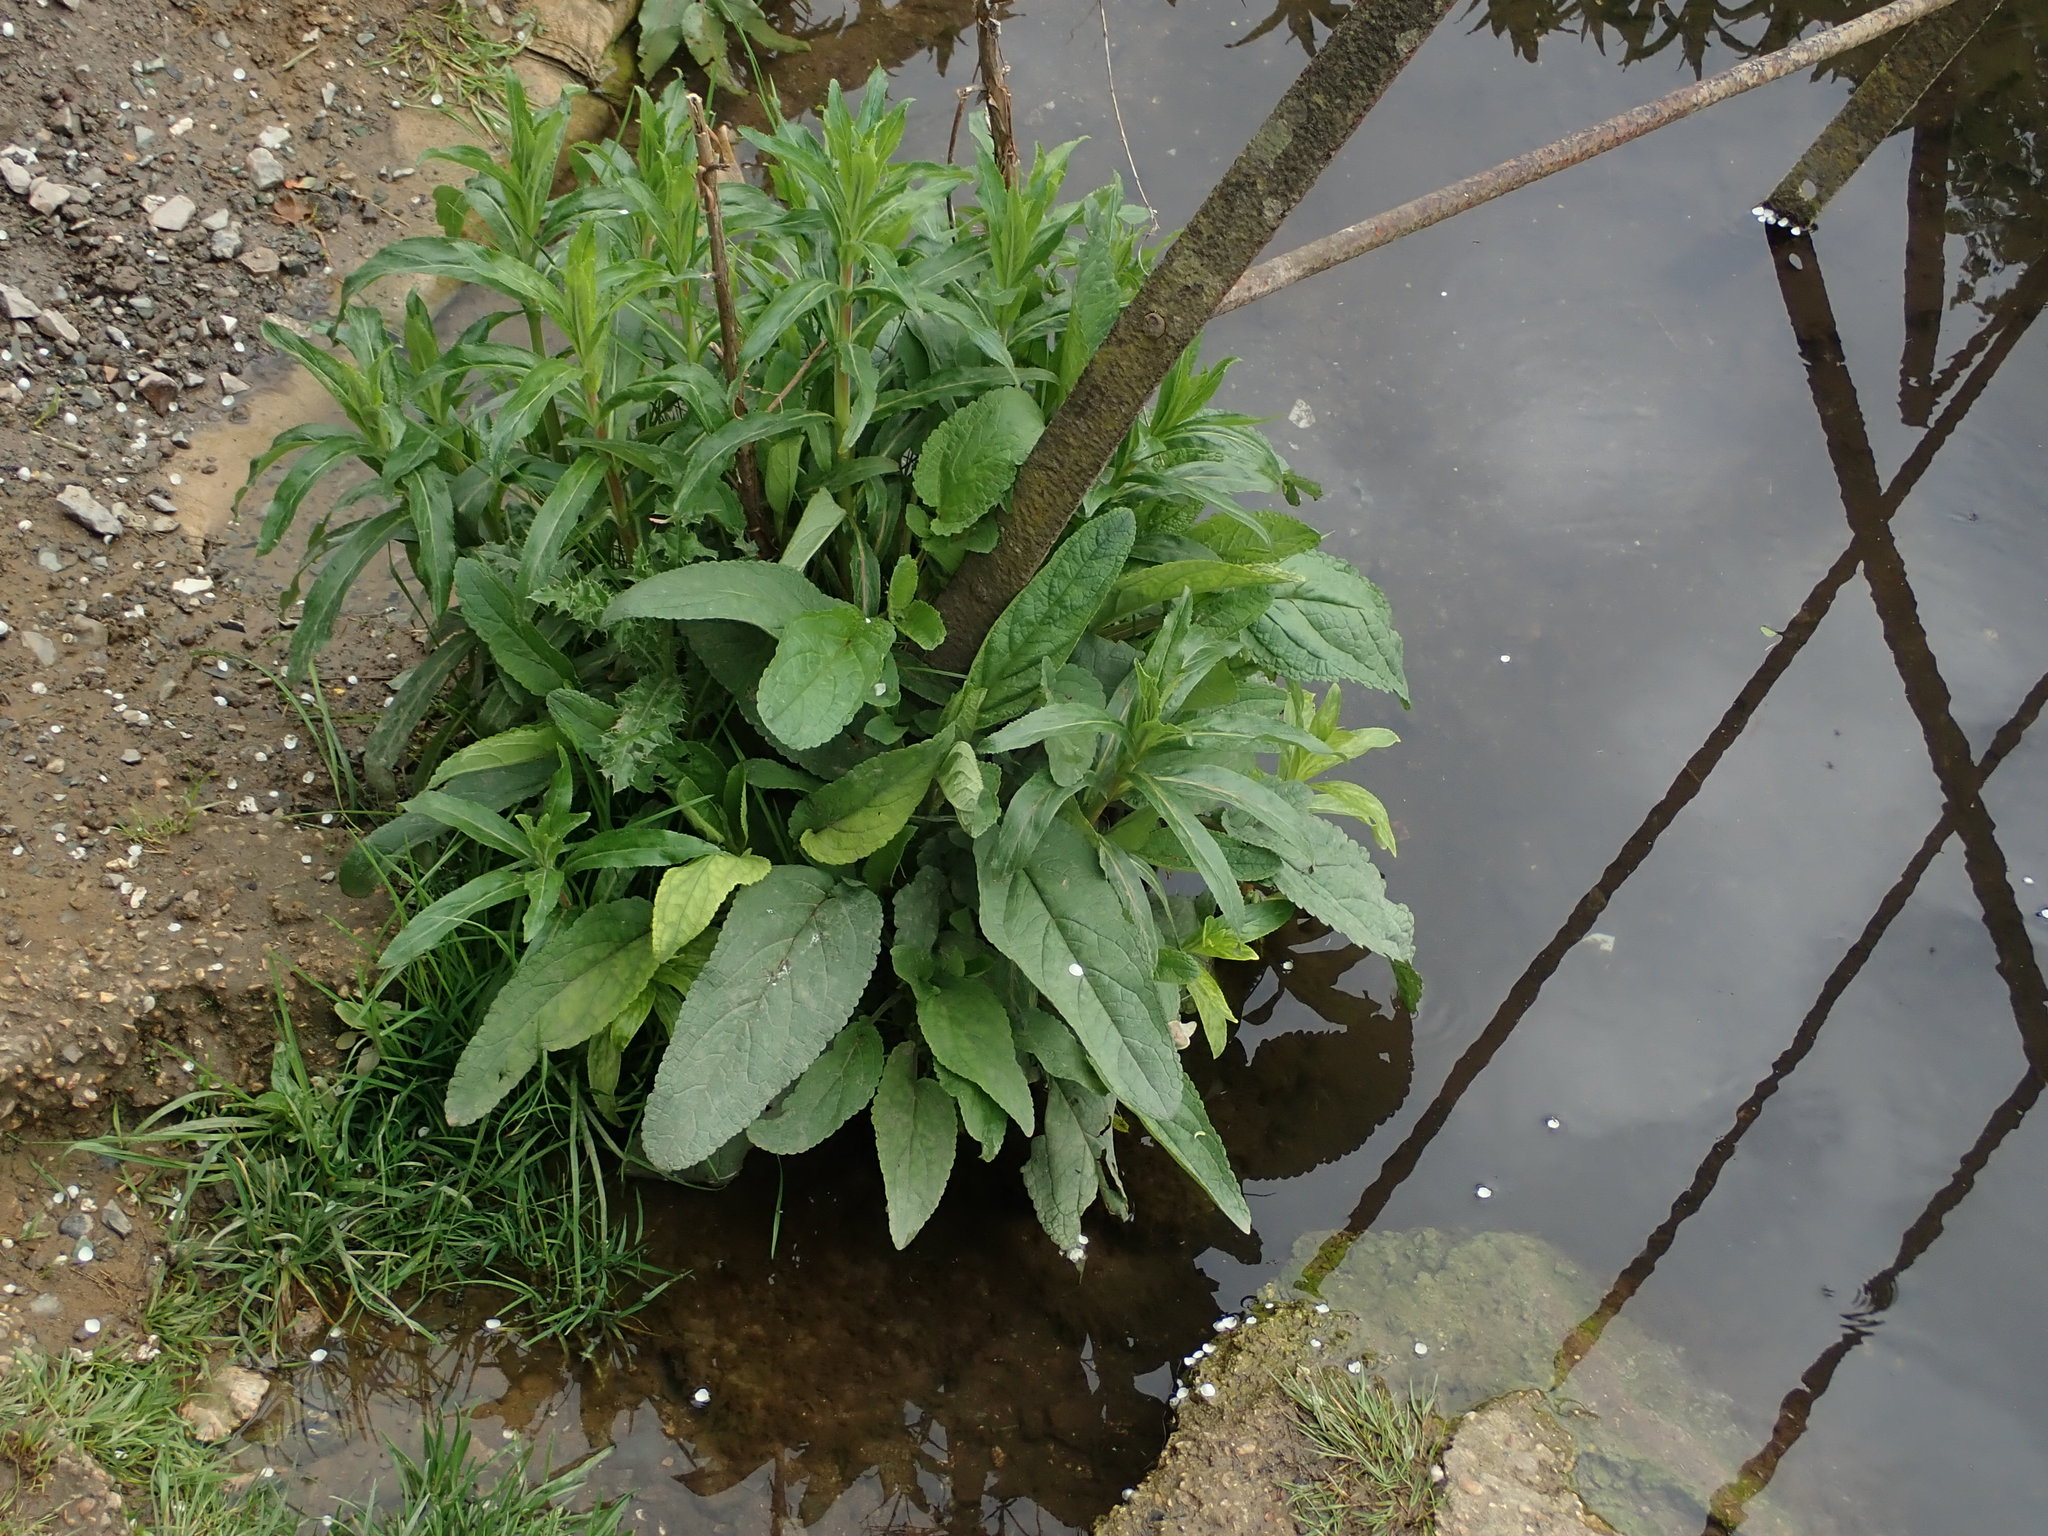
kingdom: Plantae
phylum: Tracheophyta
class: Magnoliopsida
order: Lamiales
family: Scrophulariaceae
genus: Scrophularia
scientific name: Scrophularia auriculata
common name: Water betony
